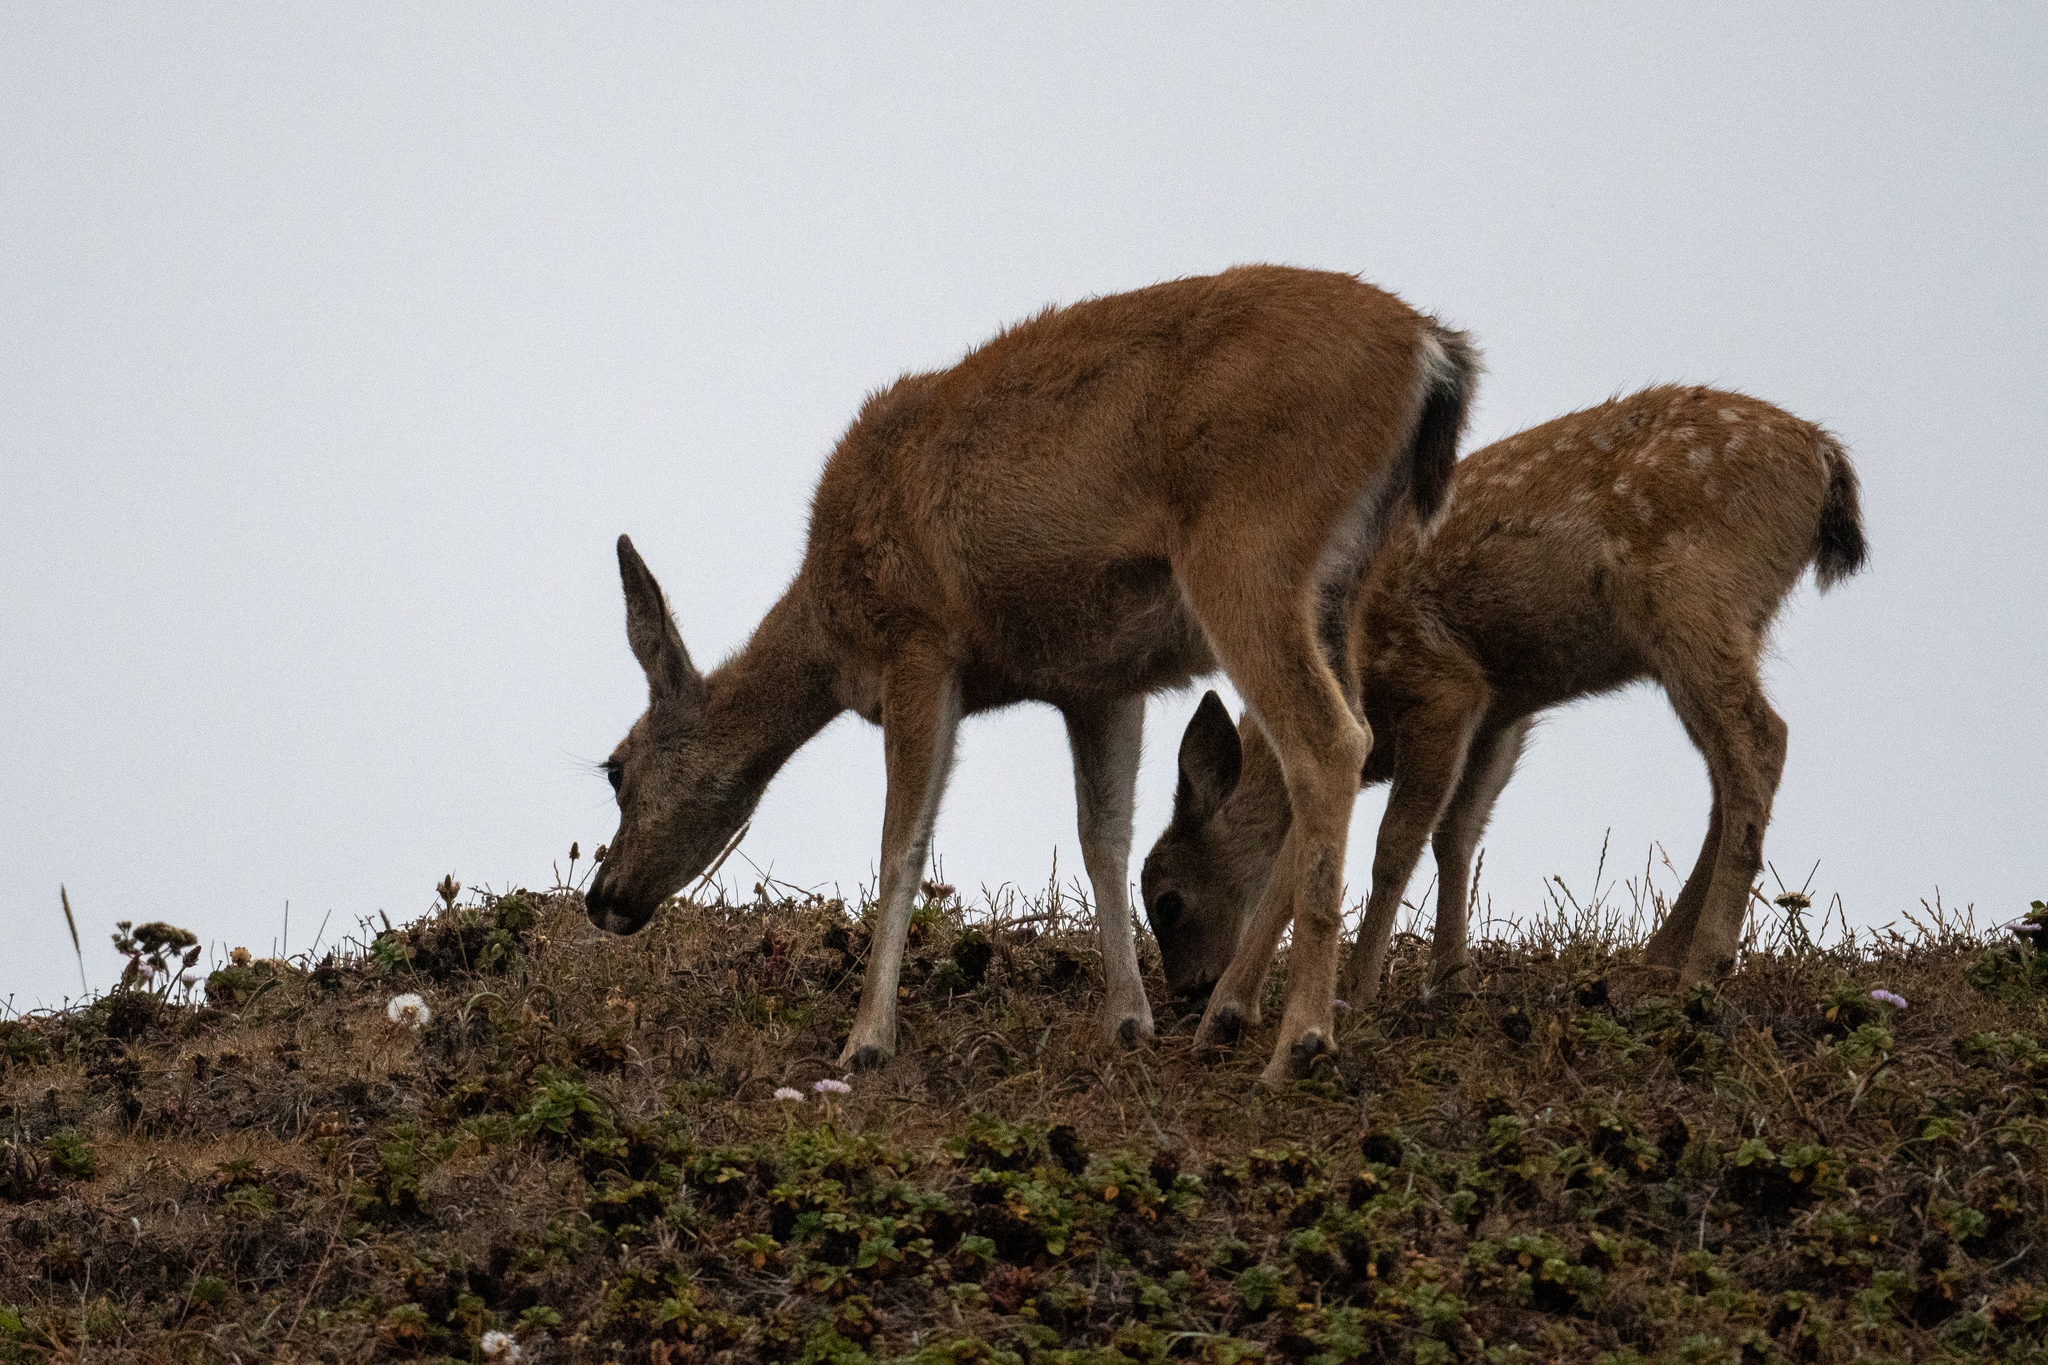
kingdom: Animalia
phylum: Chordata
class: Mammalia
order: Artiodactyla
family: Cervidae
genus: Odocoileus
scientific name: Odocoileus hemionus
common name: Mule deer
